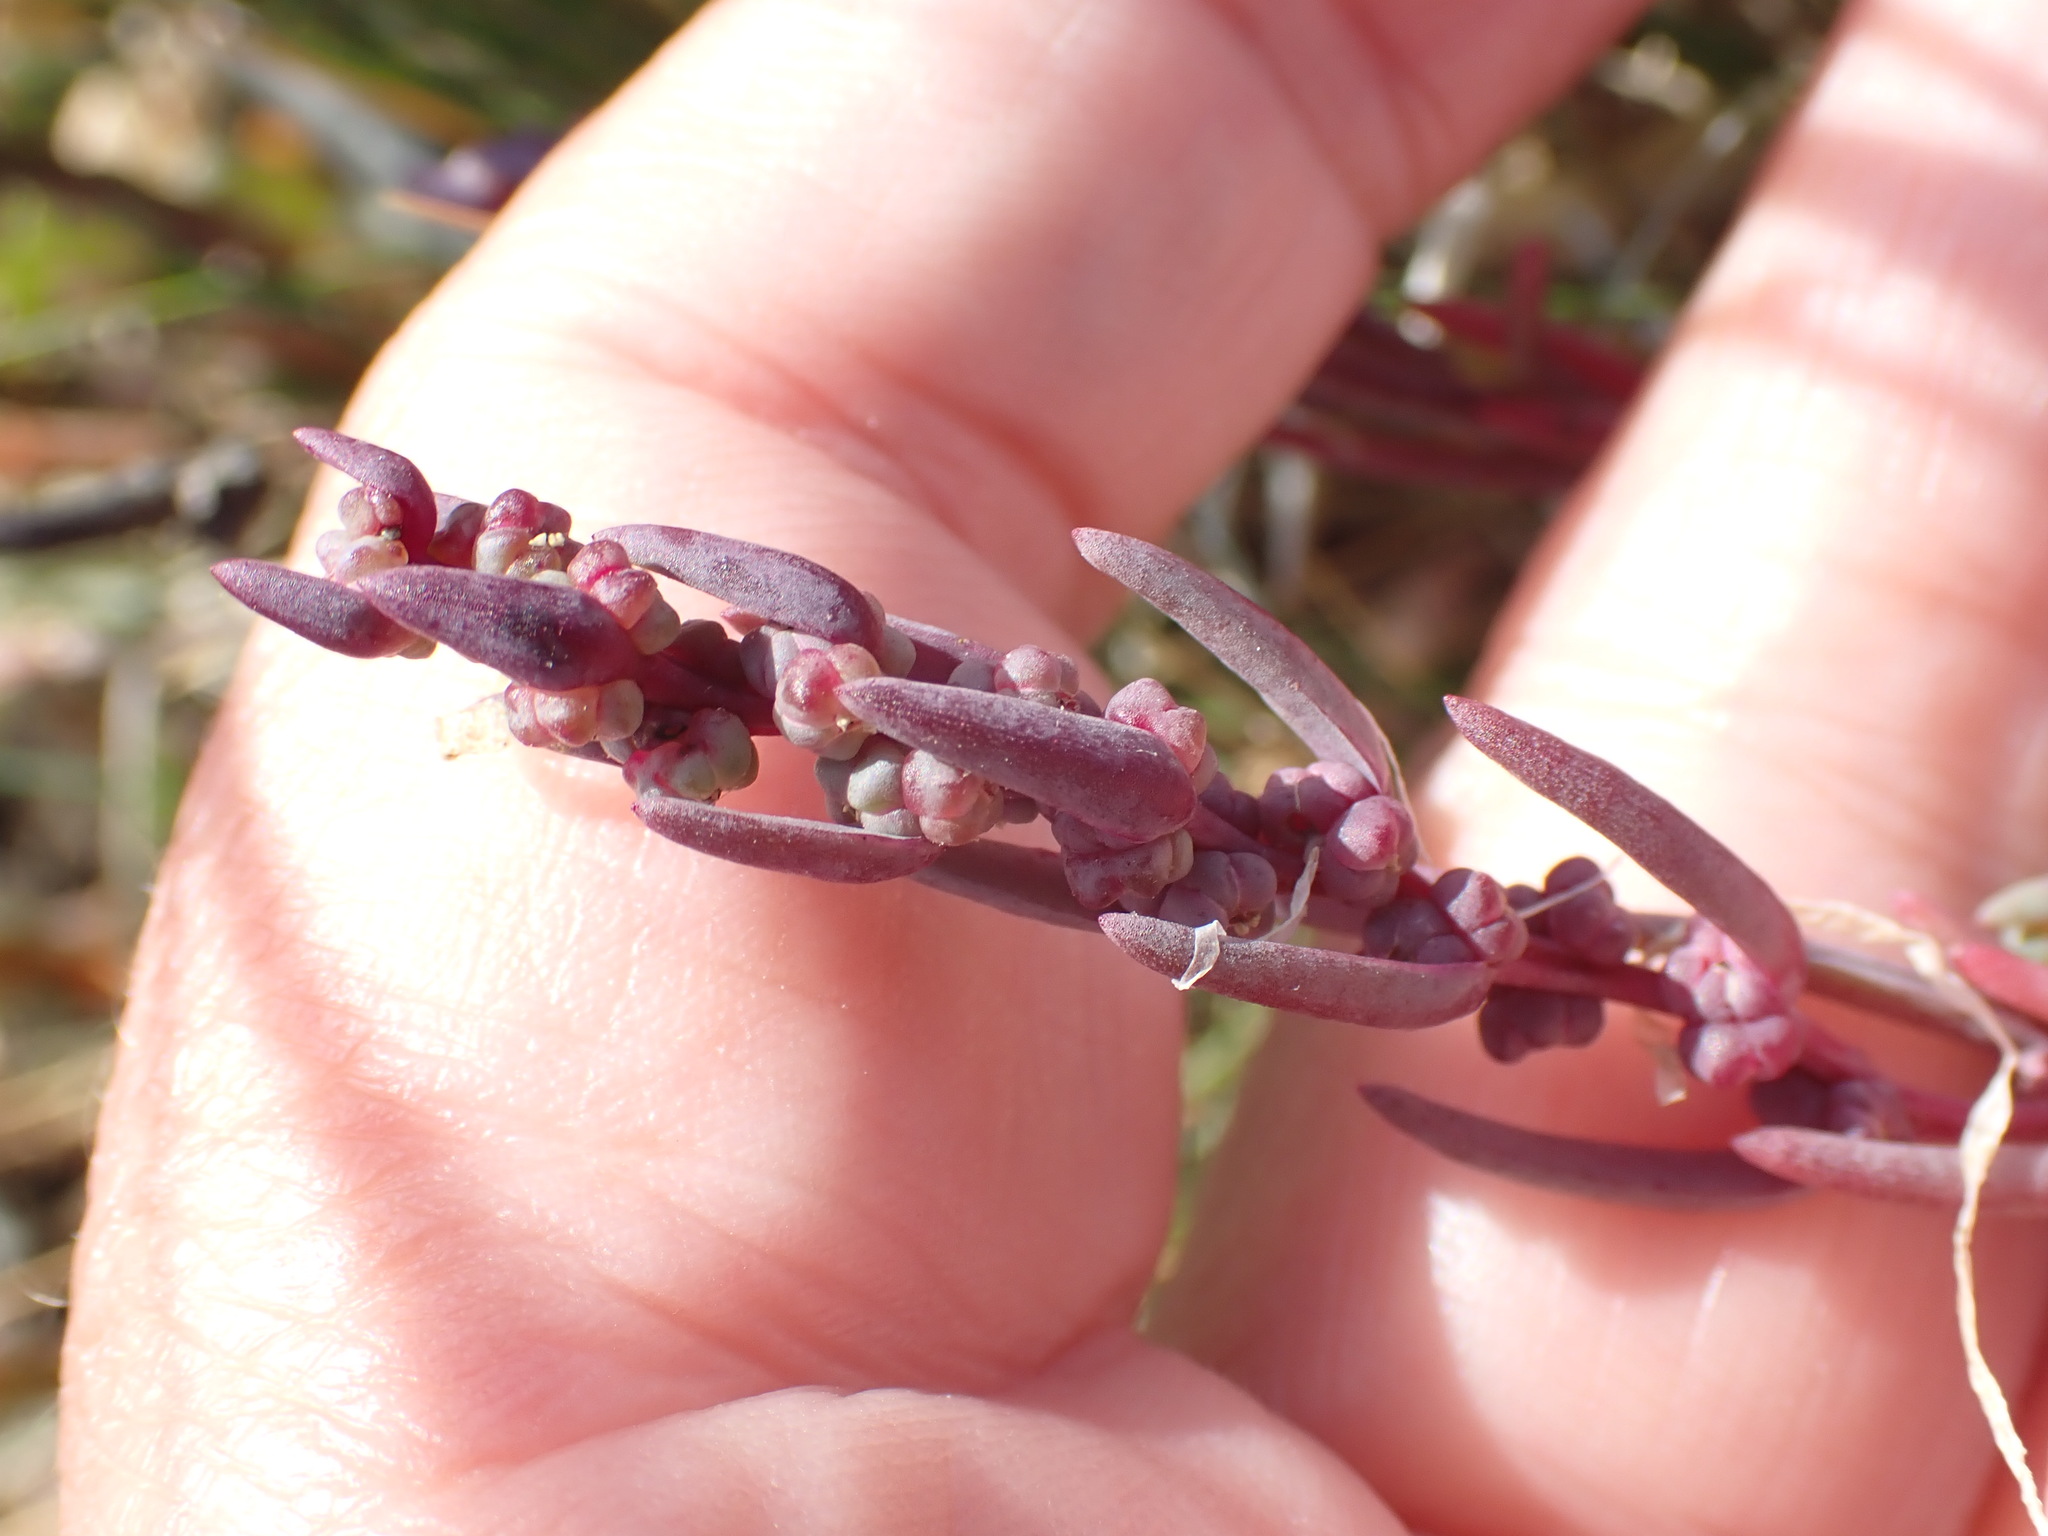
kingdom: Plantae
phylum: Tracheophyta
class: Magnoliopsida
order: Caryophyllales
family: Amaranthaceae
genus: Suaeda
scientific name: Suaeda maritima
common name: Annual sea-blite
